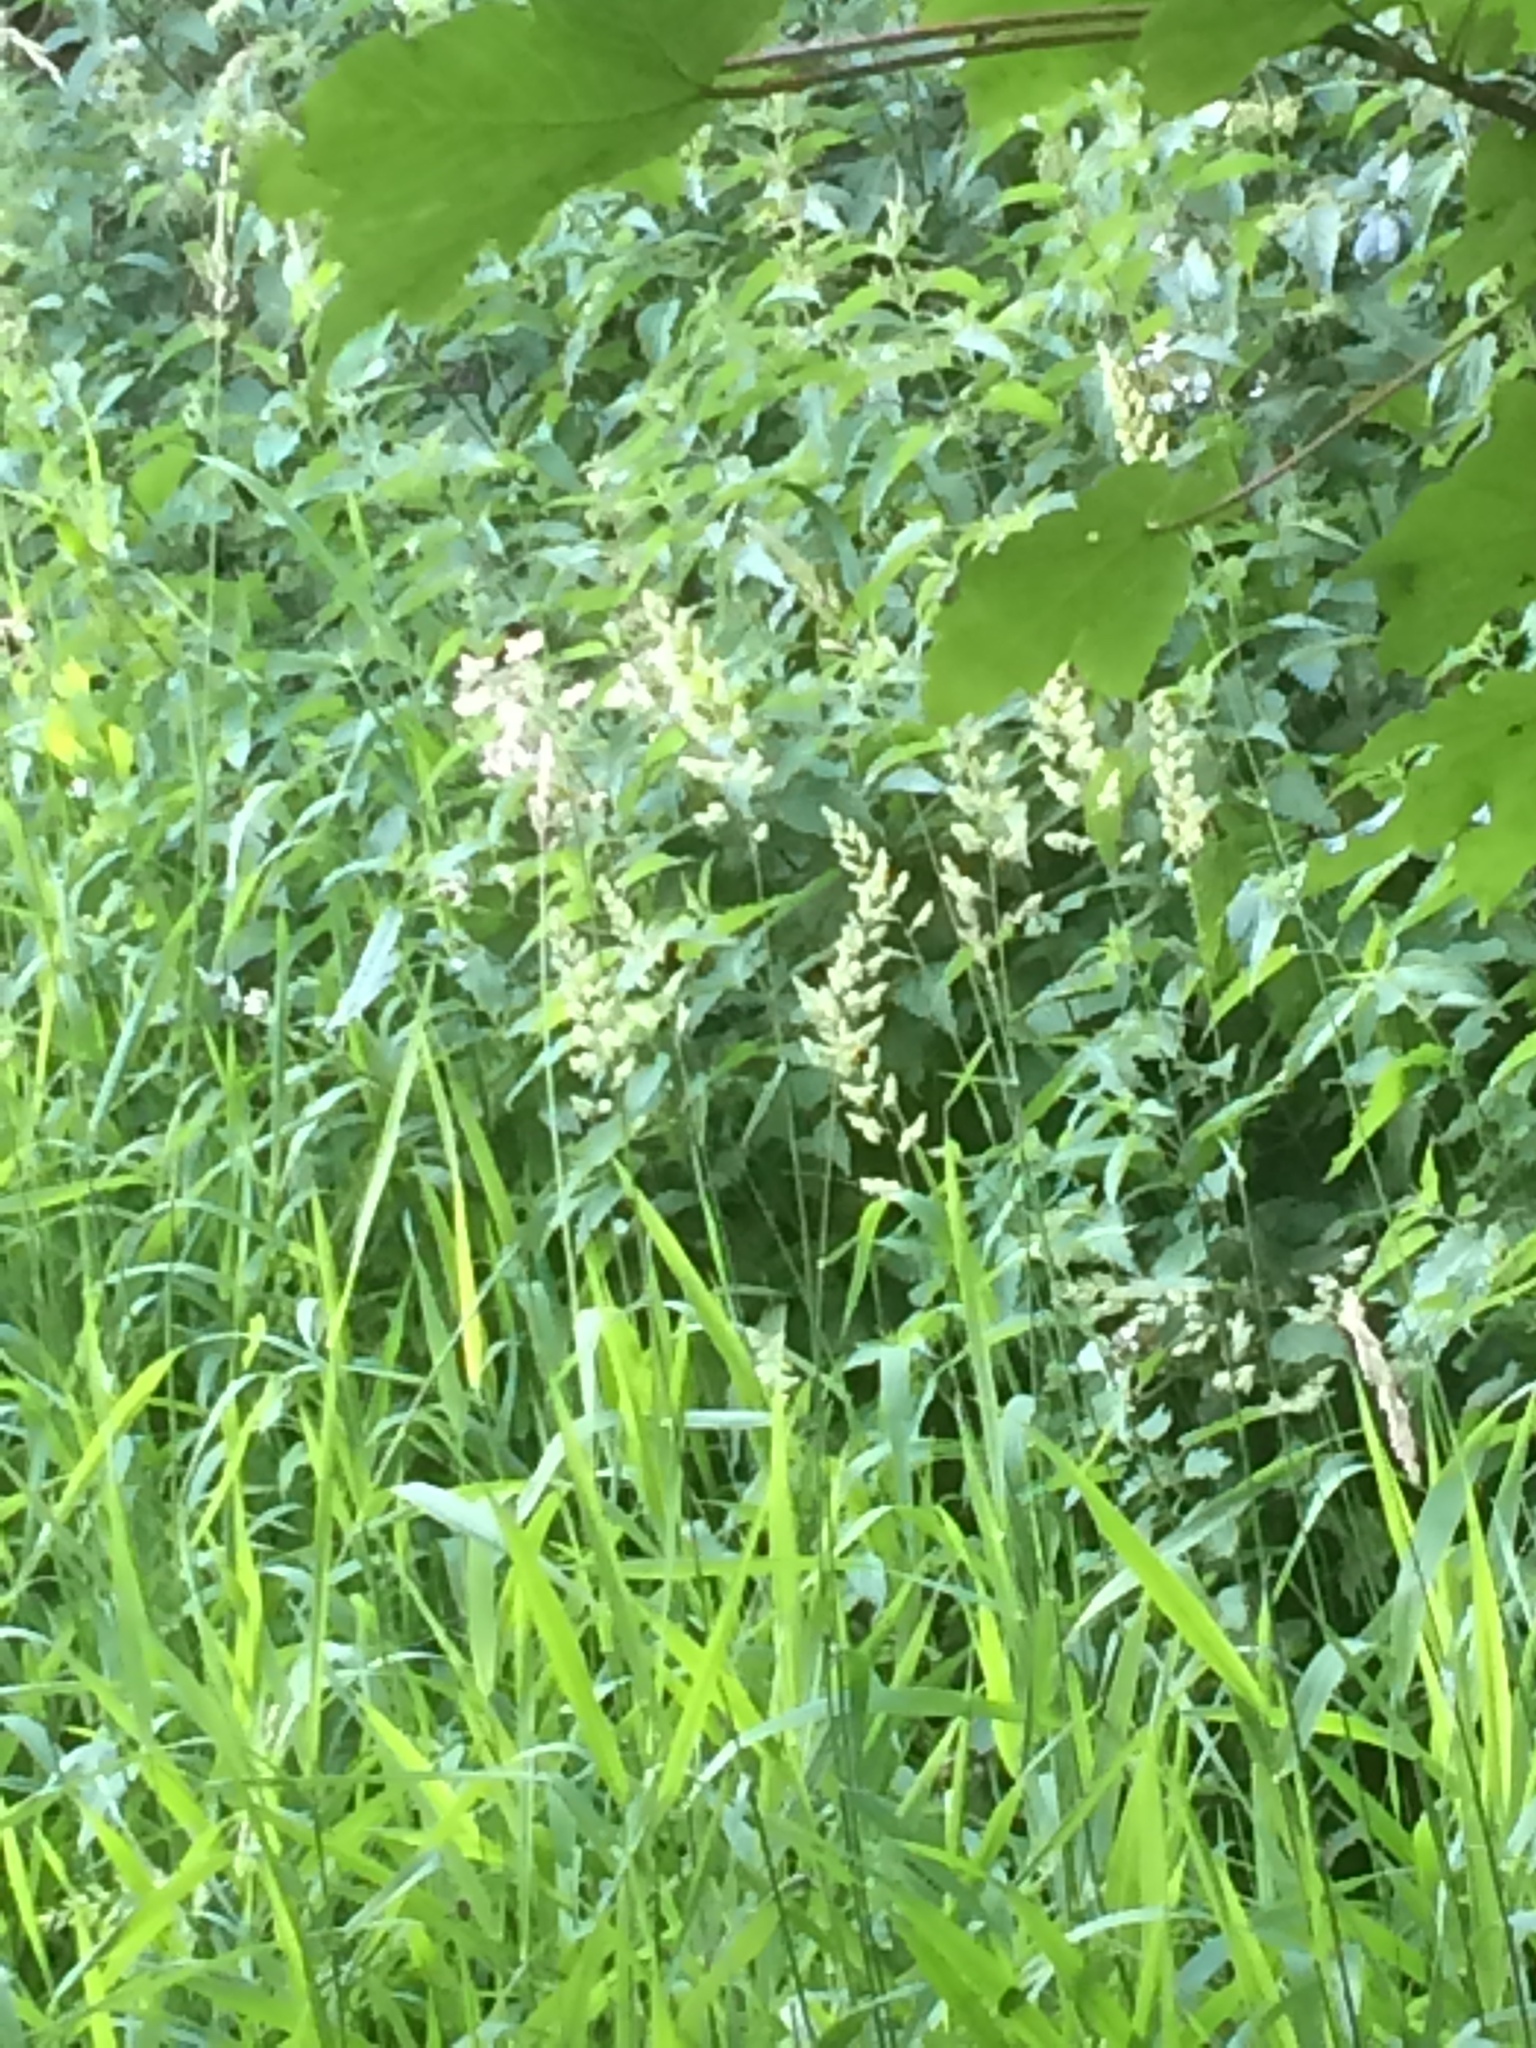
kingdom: Plantae
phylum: Tracheophyta
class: Liliopsida
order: Poales
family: Poaceae
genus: Phalaris
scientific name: Phalaris arundinacea
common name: Reed canary-grass
